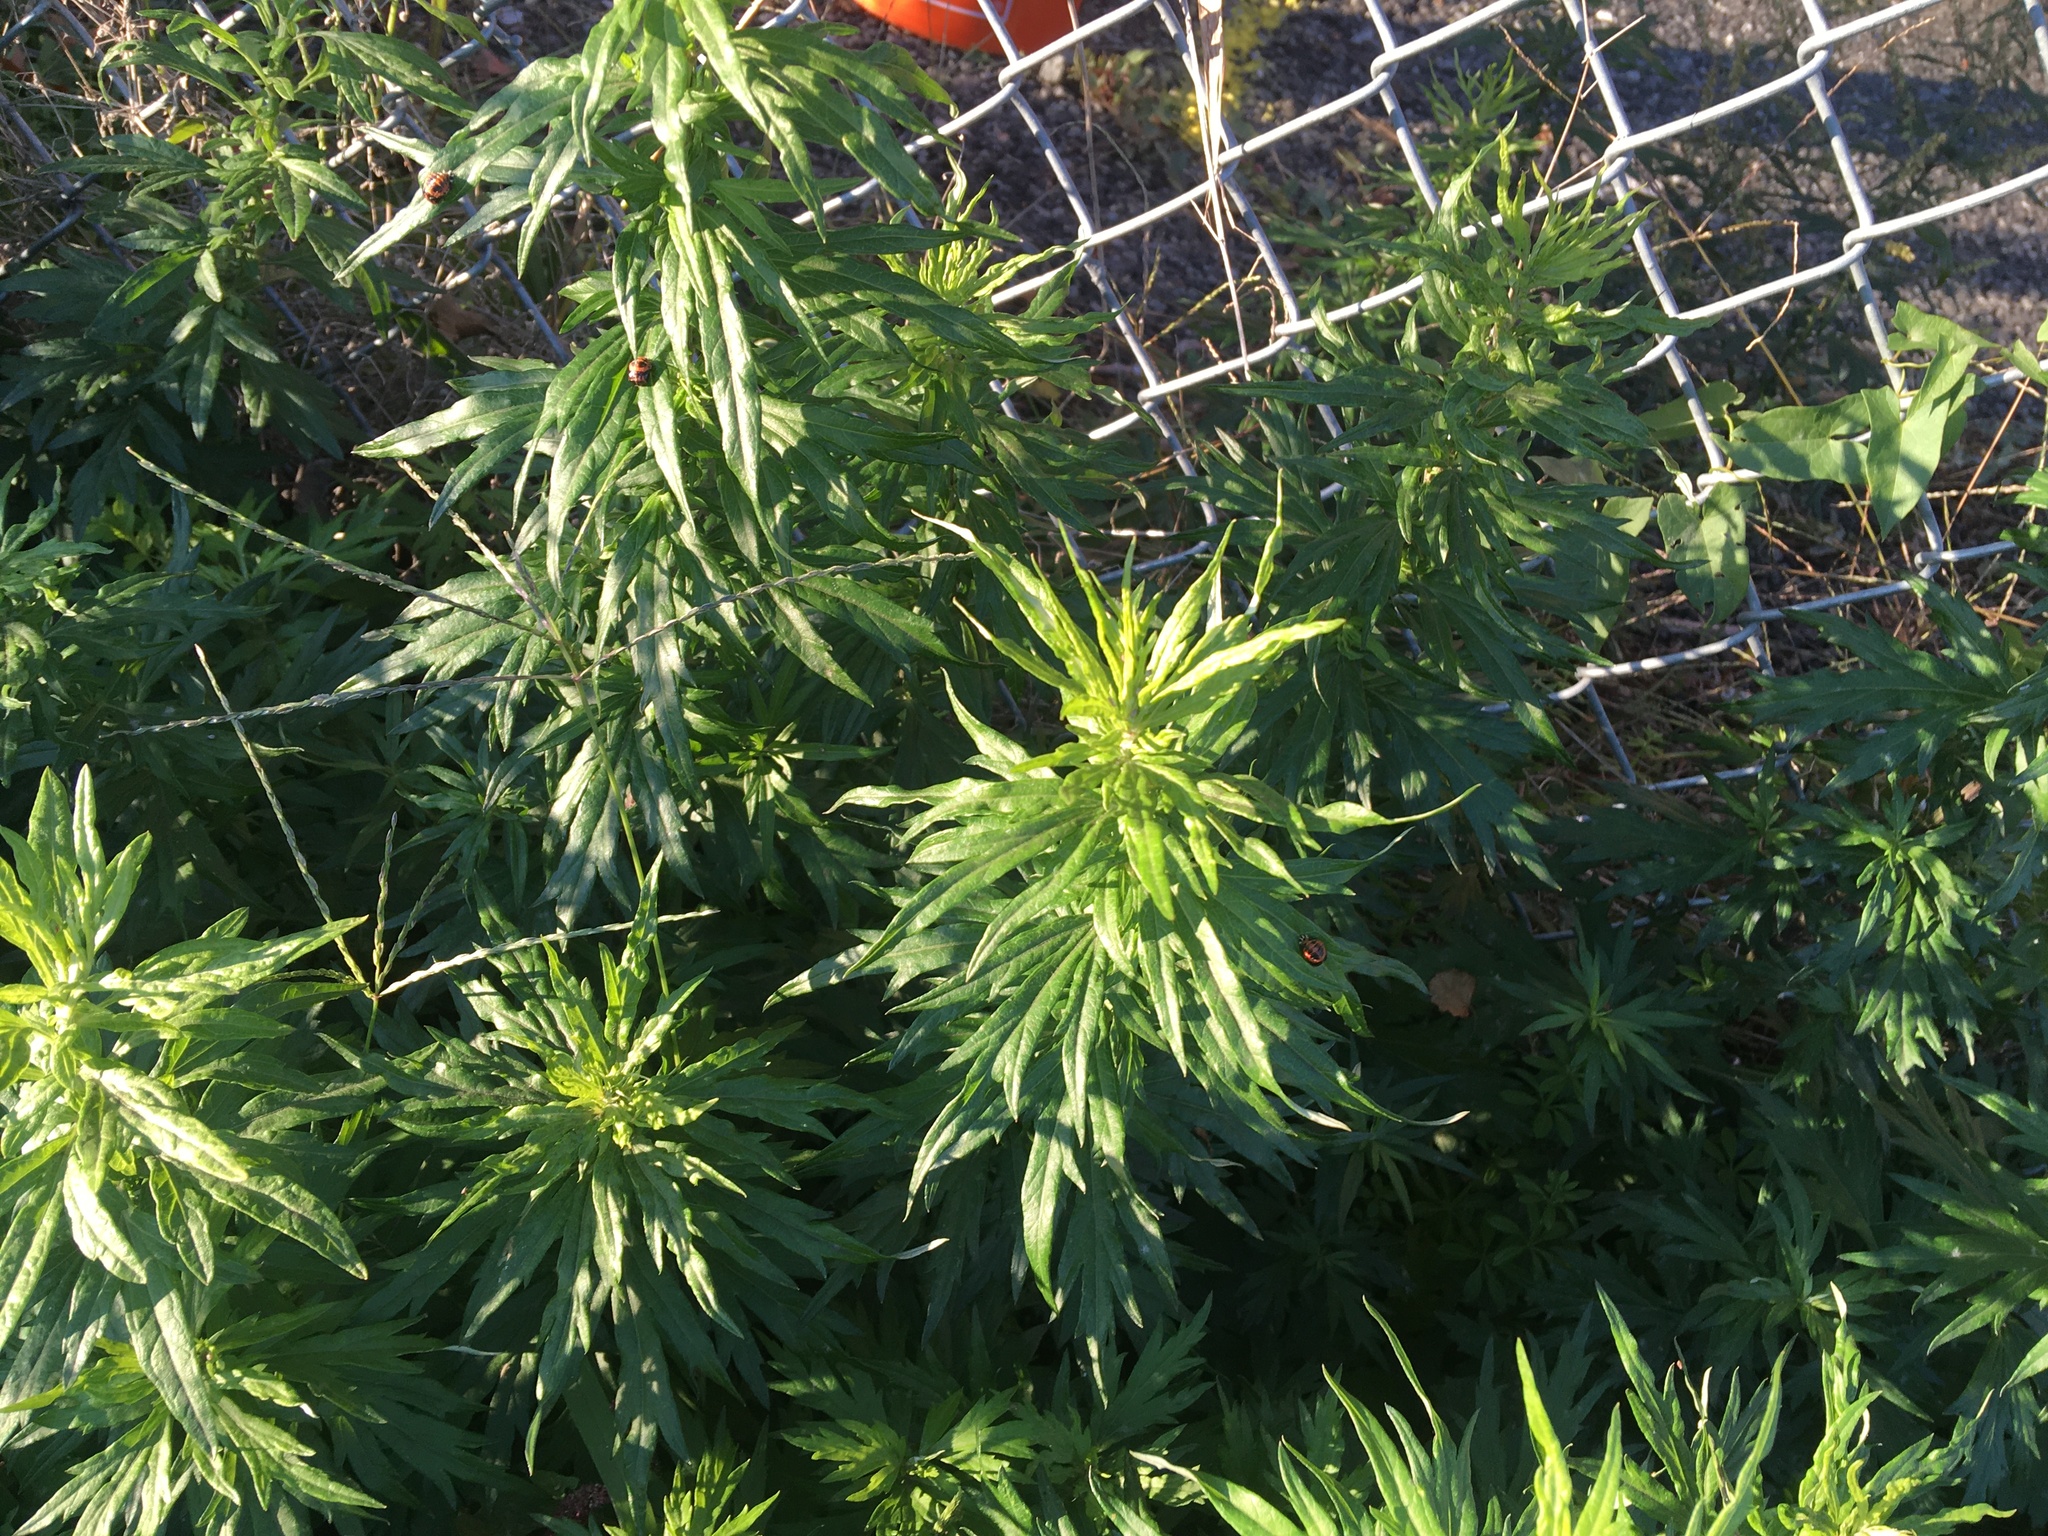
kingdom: Plantae
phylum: Tracheophyta
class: Magnoliopsida
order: Asterales
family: Asteraceae
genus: Artemisia
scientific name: Artemisia vulgaris
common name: Mugwort
